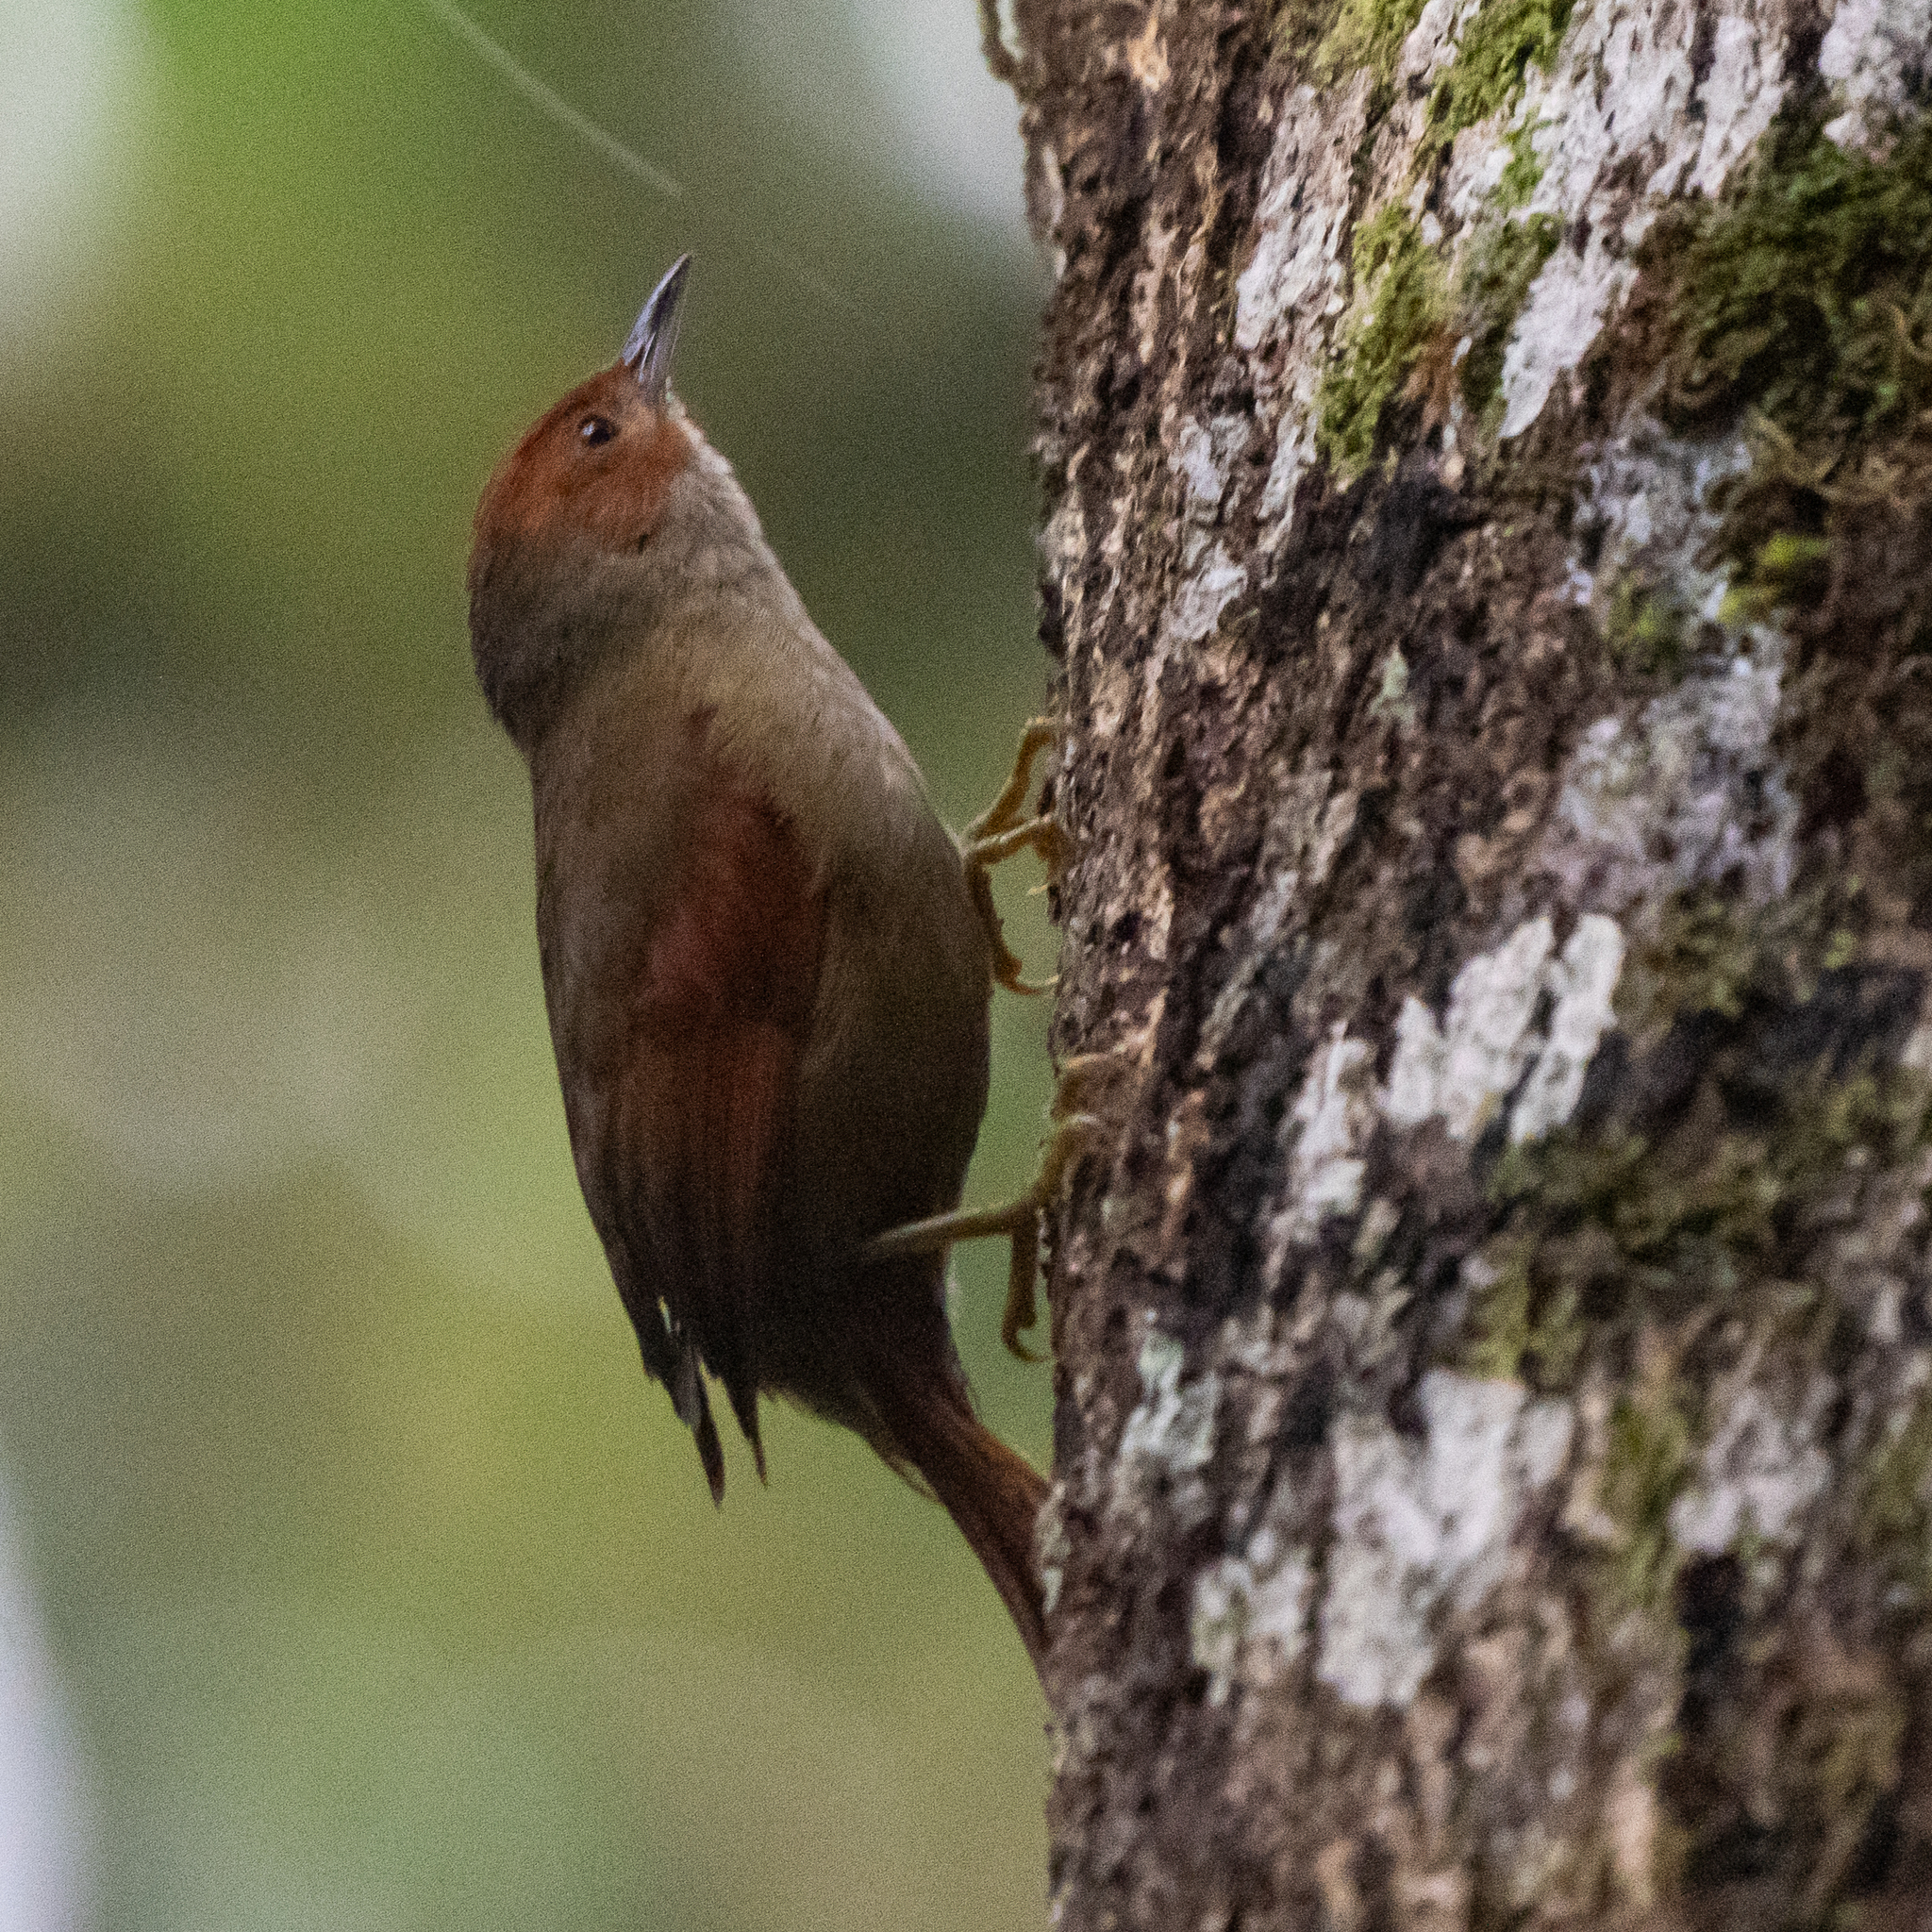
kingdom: Animalia
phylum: Chordata
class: Aves
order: Passeriformes
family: Furnariidae
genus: Cranioleuca
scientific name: Cranioleuca erythrops
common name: Red-faced spinetail
